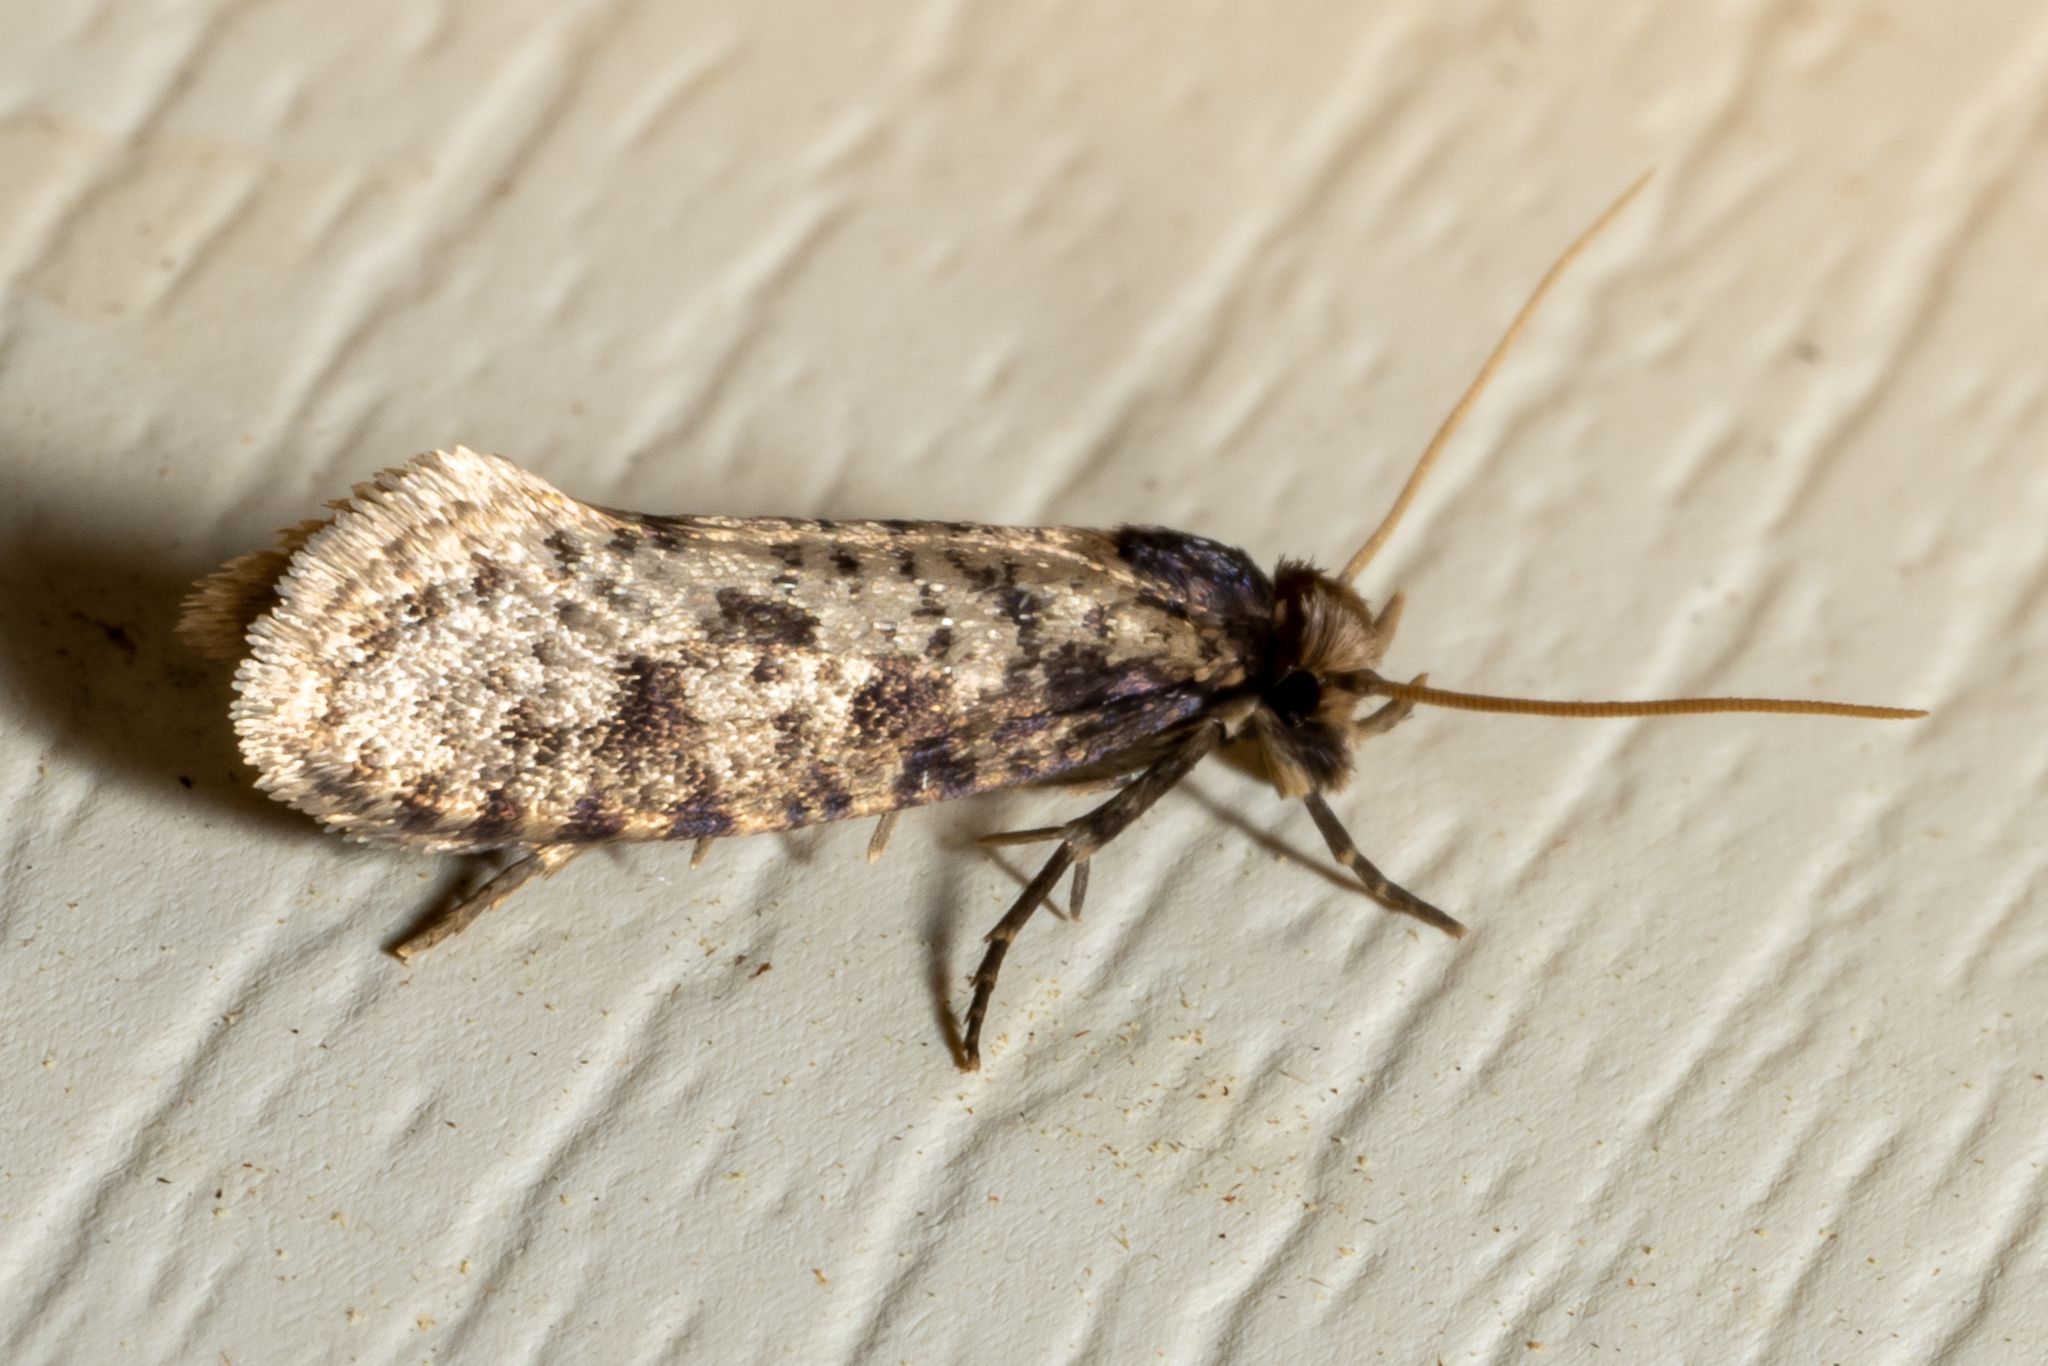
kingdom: Animalia
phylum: Arthropoda
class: Insecta
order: Lepidoptera
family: Tineidae
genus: Amydria
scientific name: Amydria effrentella
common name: Brown-blotched amydria moth
